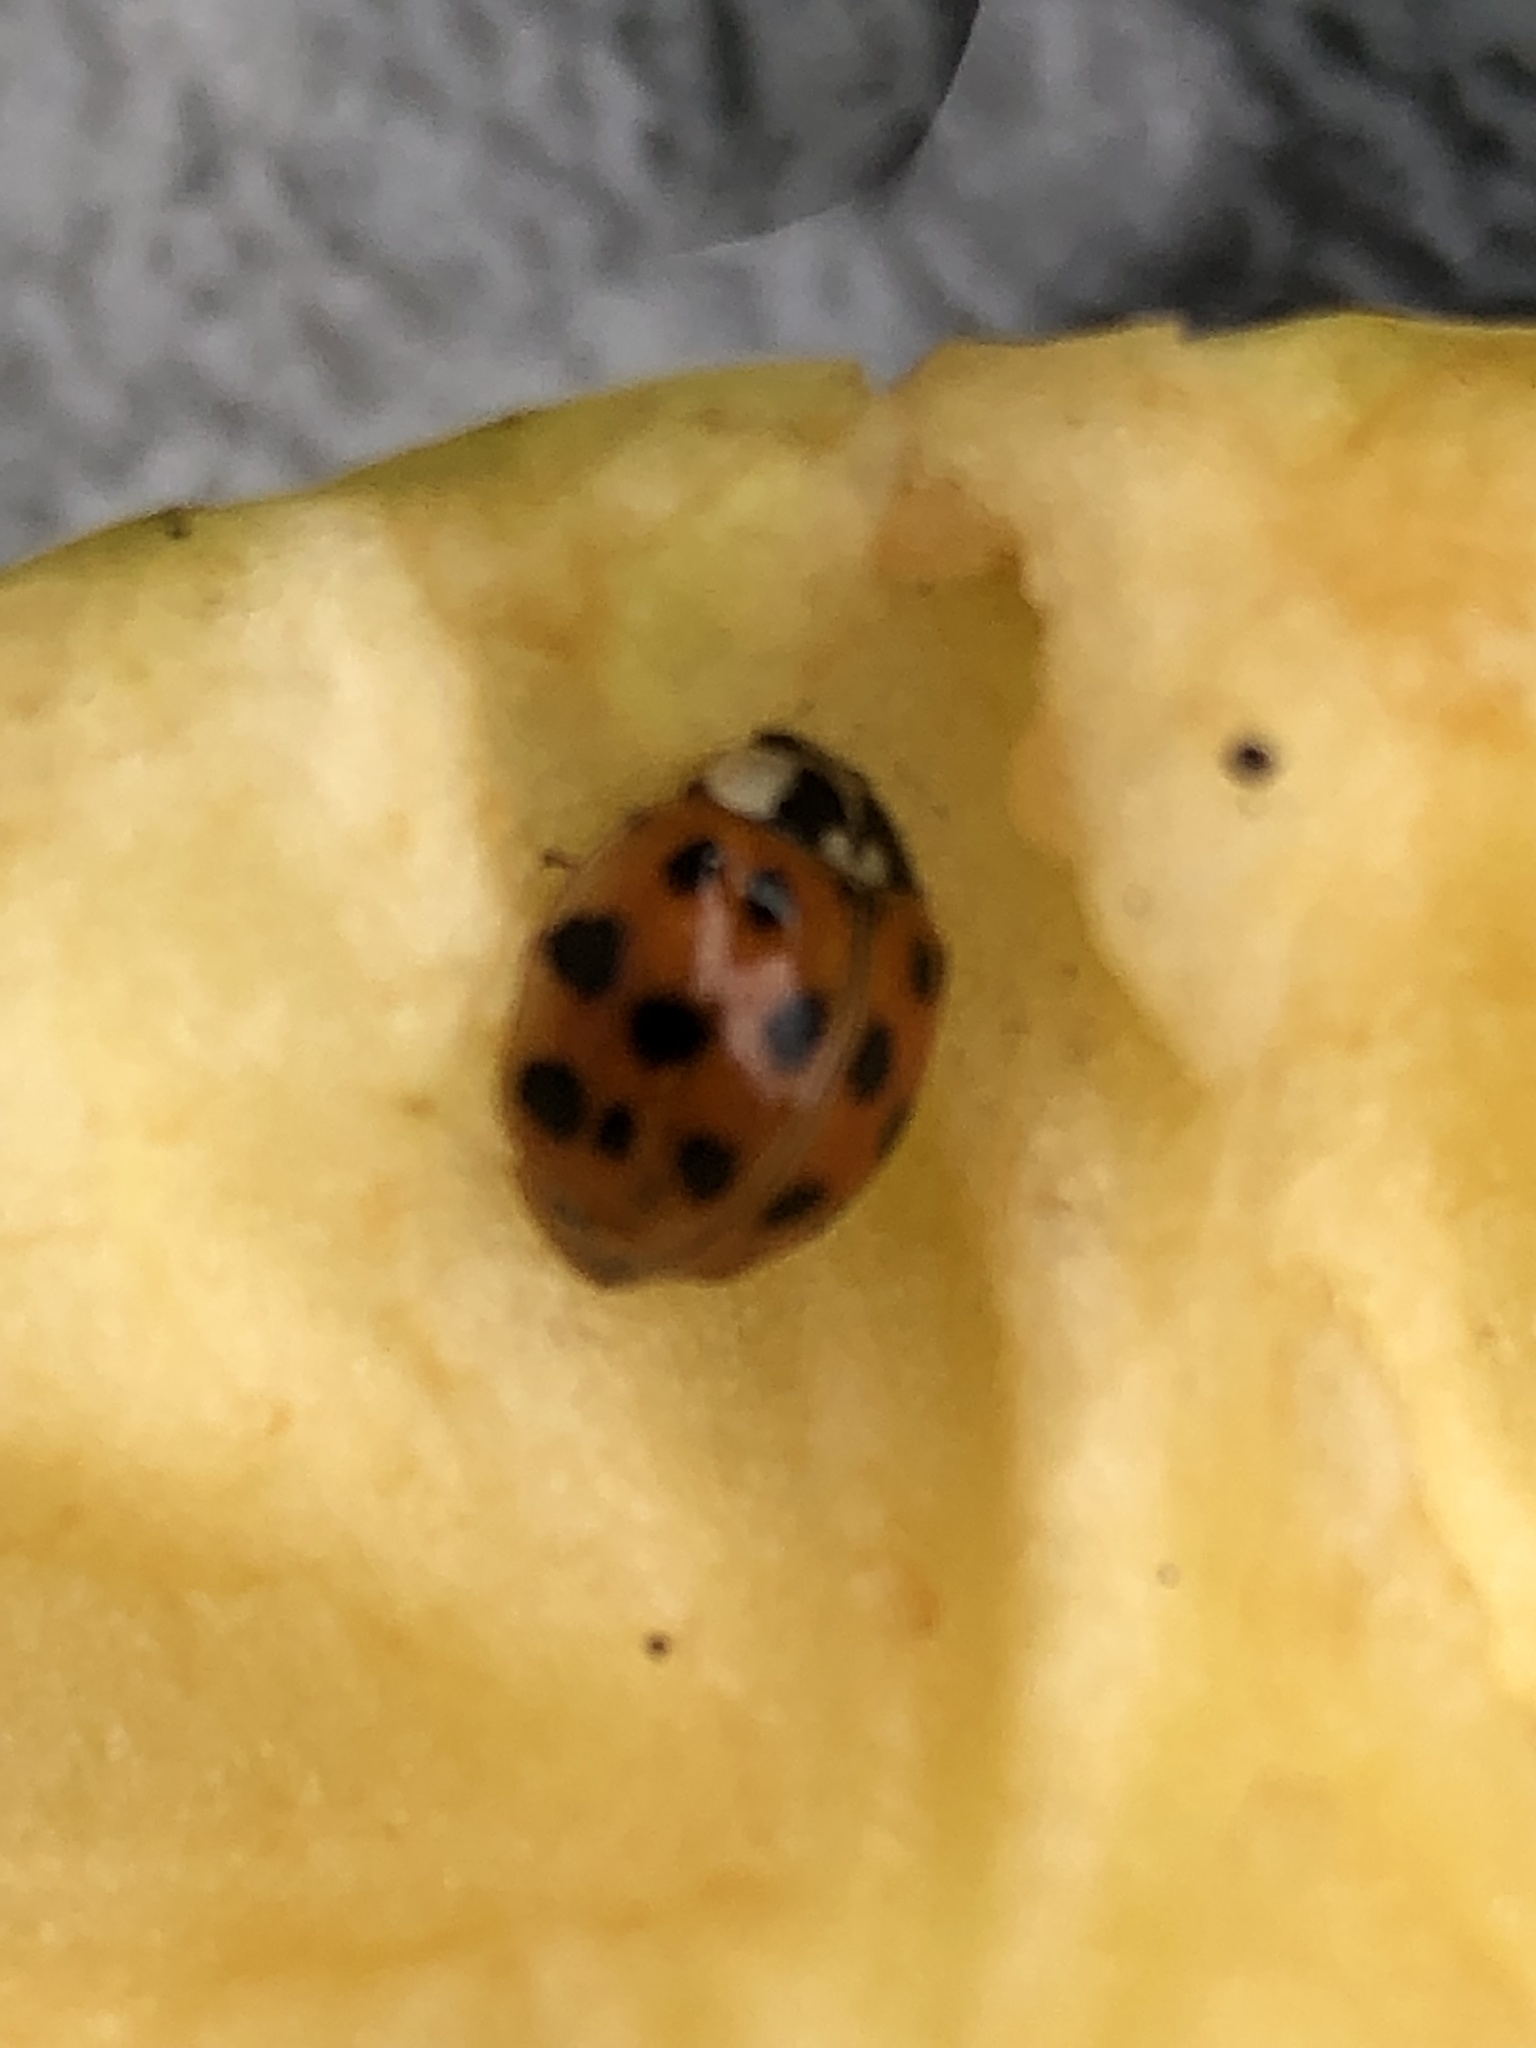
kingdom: Animalia
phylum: Arthropoda
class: Insecta
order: Coleoptera
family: Coccinellidae
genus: Harmonia
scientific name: Harmonia axyridis
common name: Harlequin ladybird
